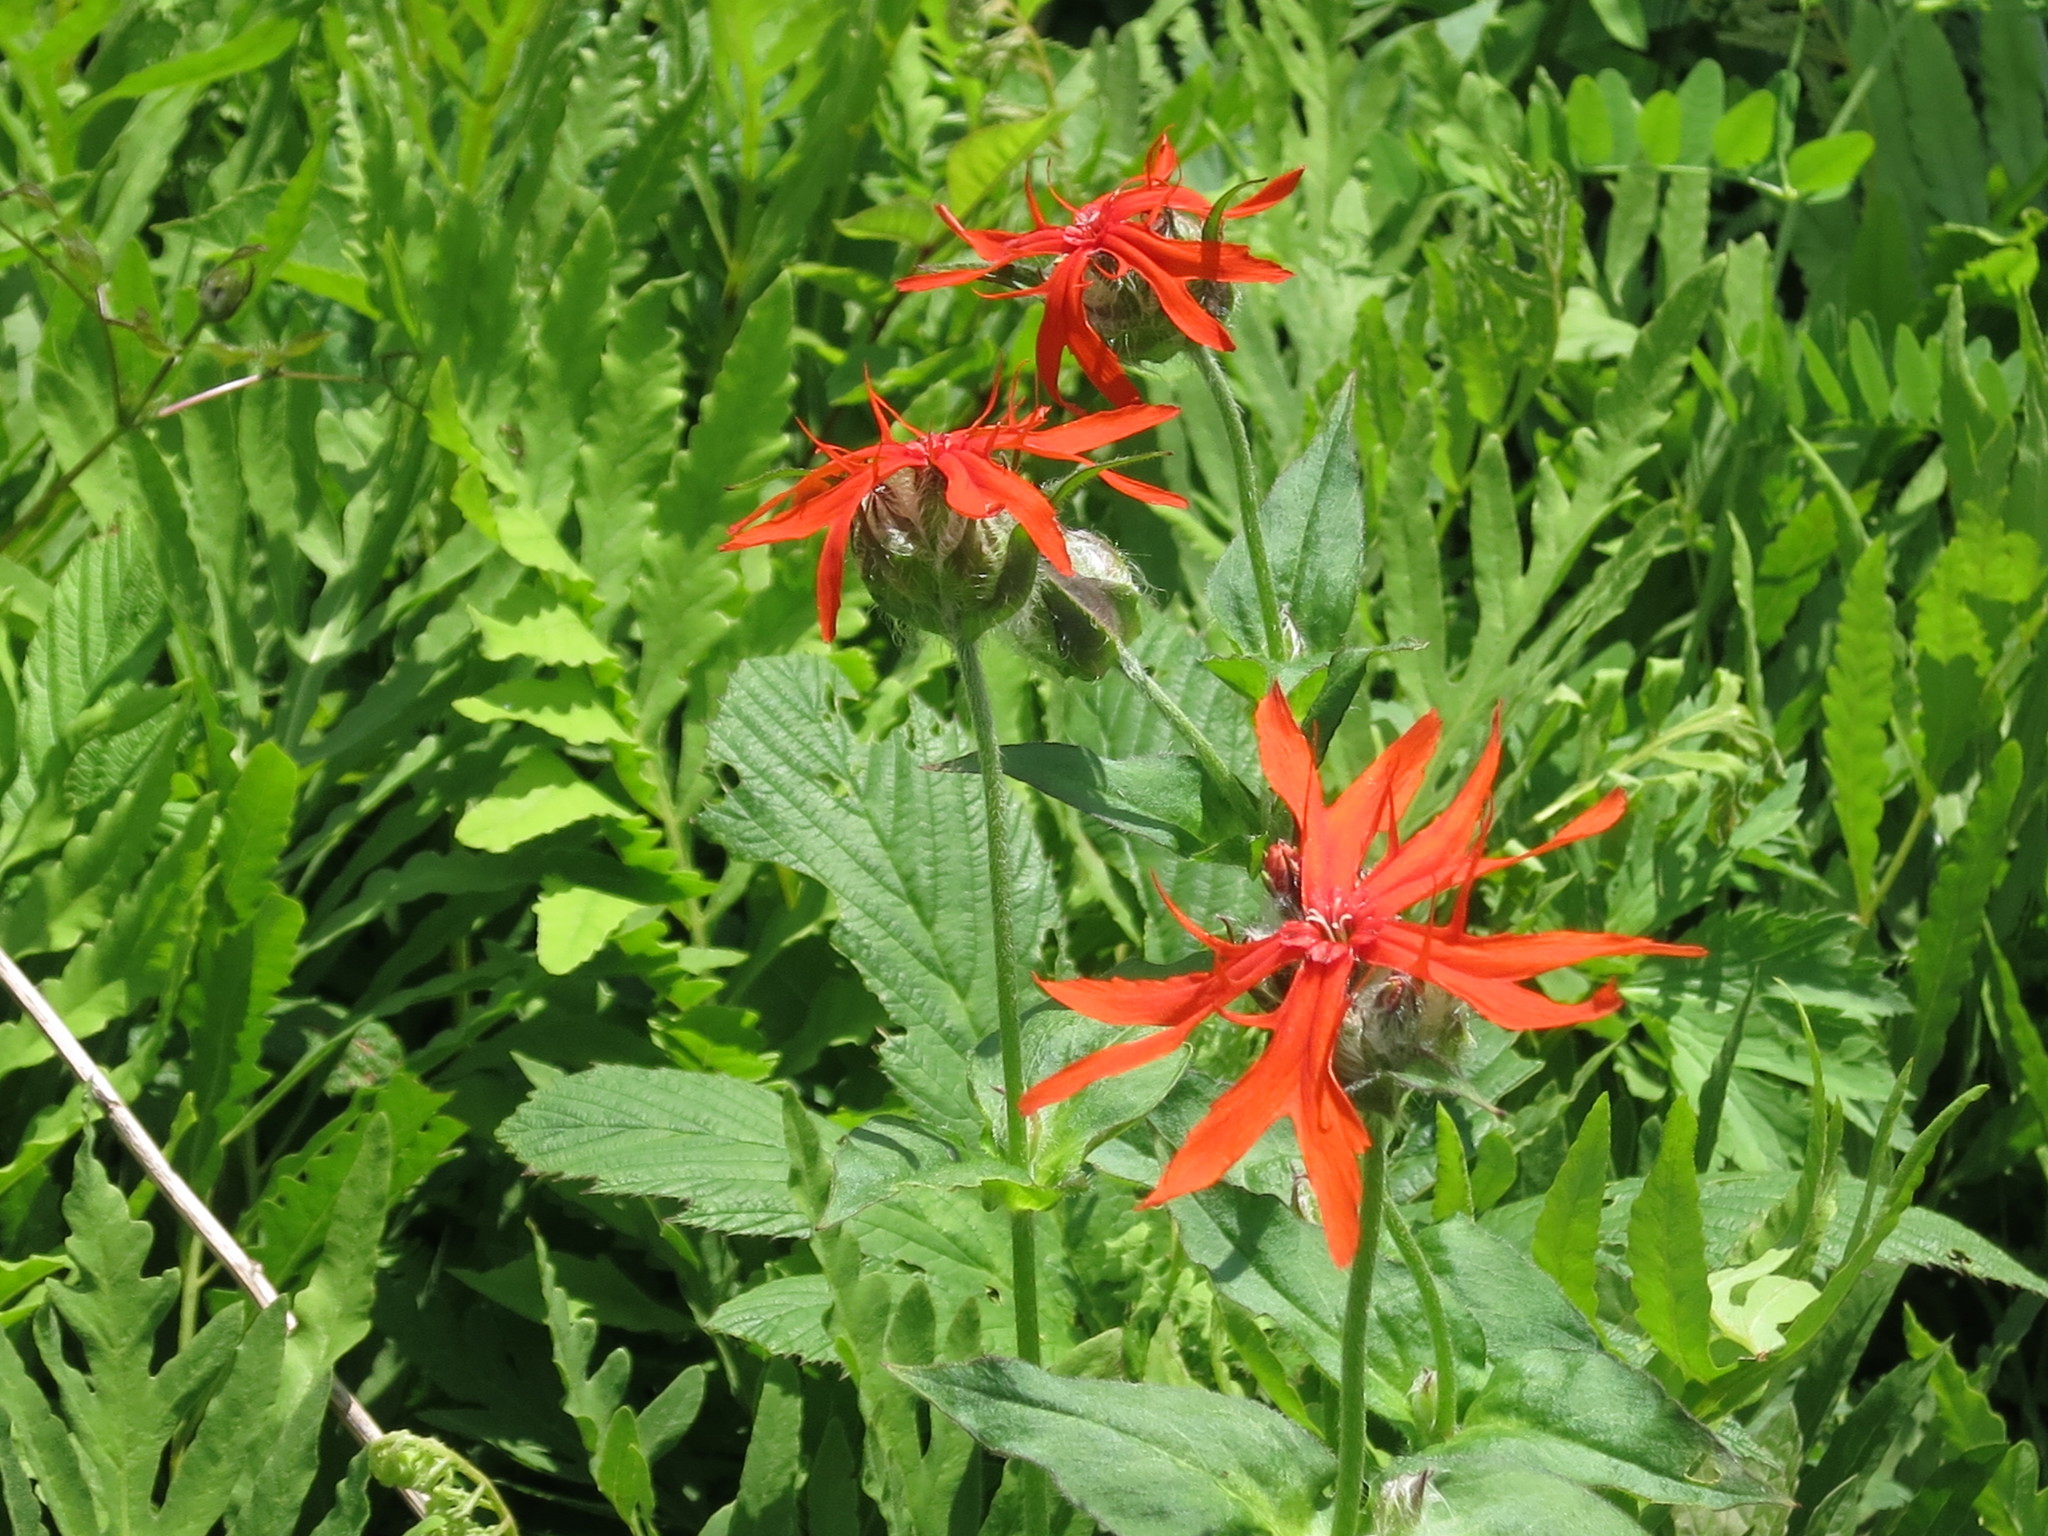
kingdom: Plantae
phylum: Tracheophyta
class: Magnoliopsida
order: Caryophyllales
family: Caryophyllaceae
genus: Silene
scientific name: Silene banksia
